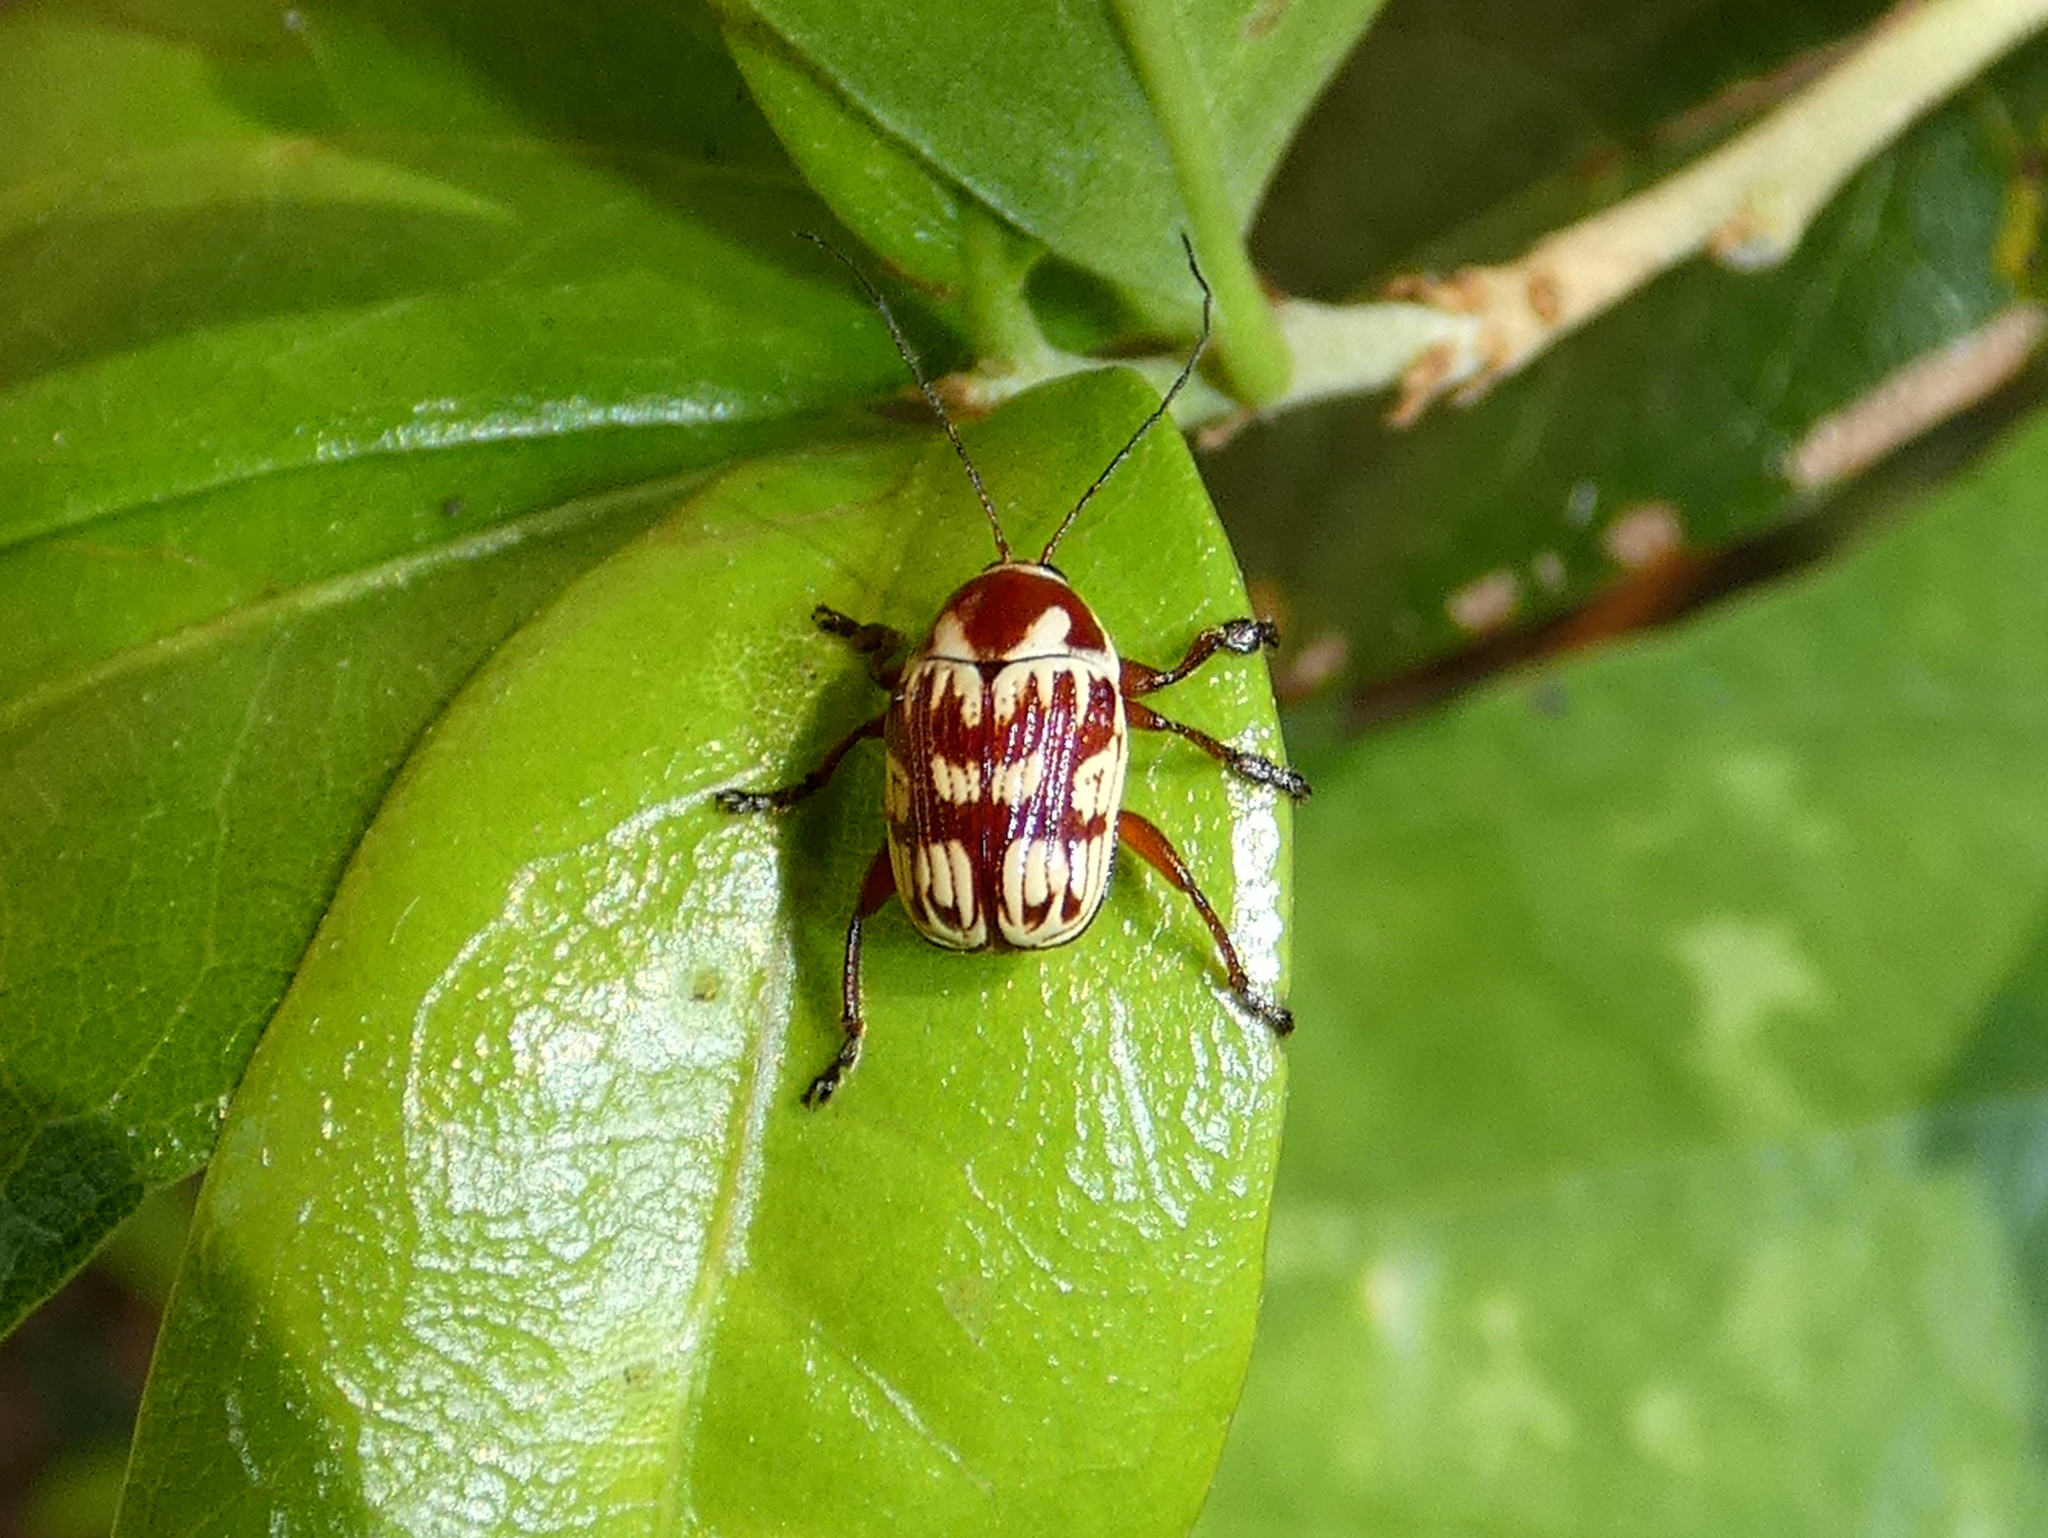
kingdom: Animalia
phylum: Arthropoda
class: Insecta
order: Coleoptera
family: Chrysomelidae
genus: Bassareus
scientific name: Bassareus brunnipes
